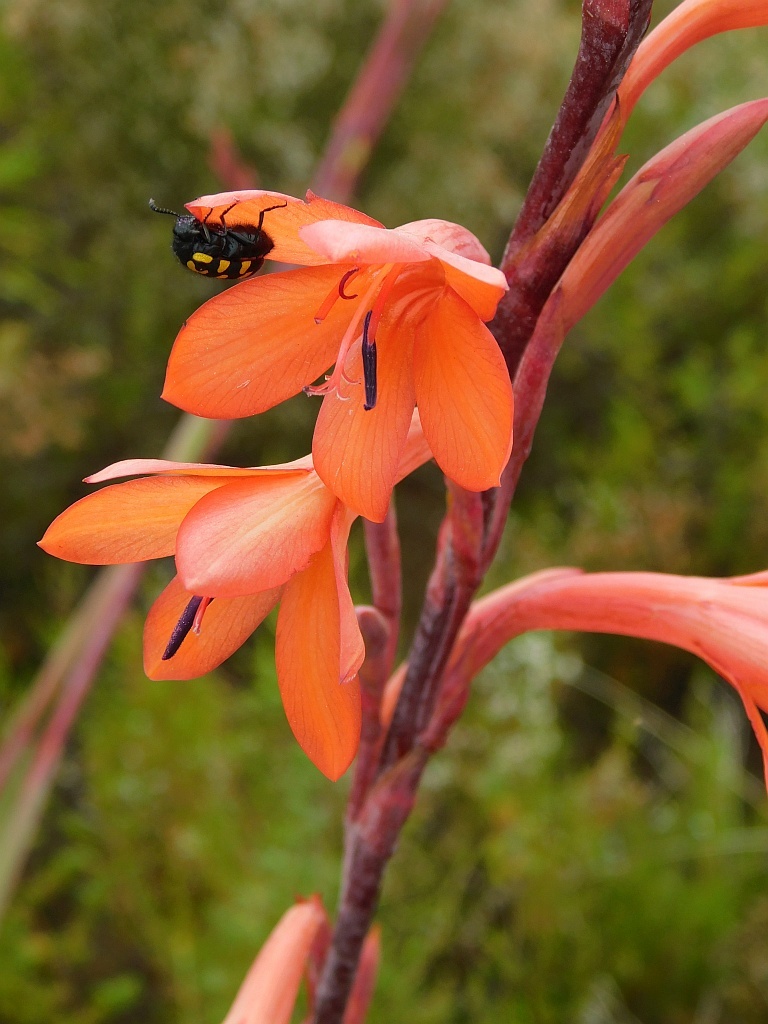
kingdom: Plantae
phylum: Tracheophyta
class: Liliopsida
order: Asparagales
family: Iridaceae
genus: Watsonia
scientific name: Watsonia meriana
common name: Bulbil bugle-lily
